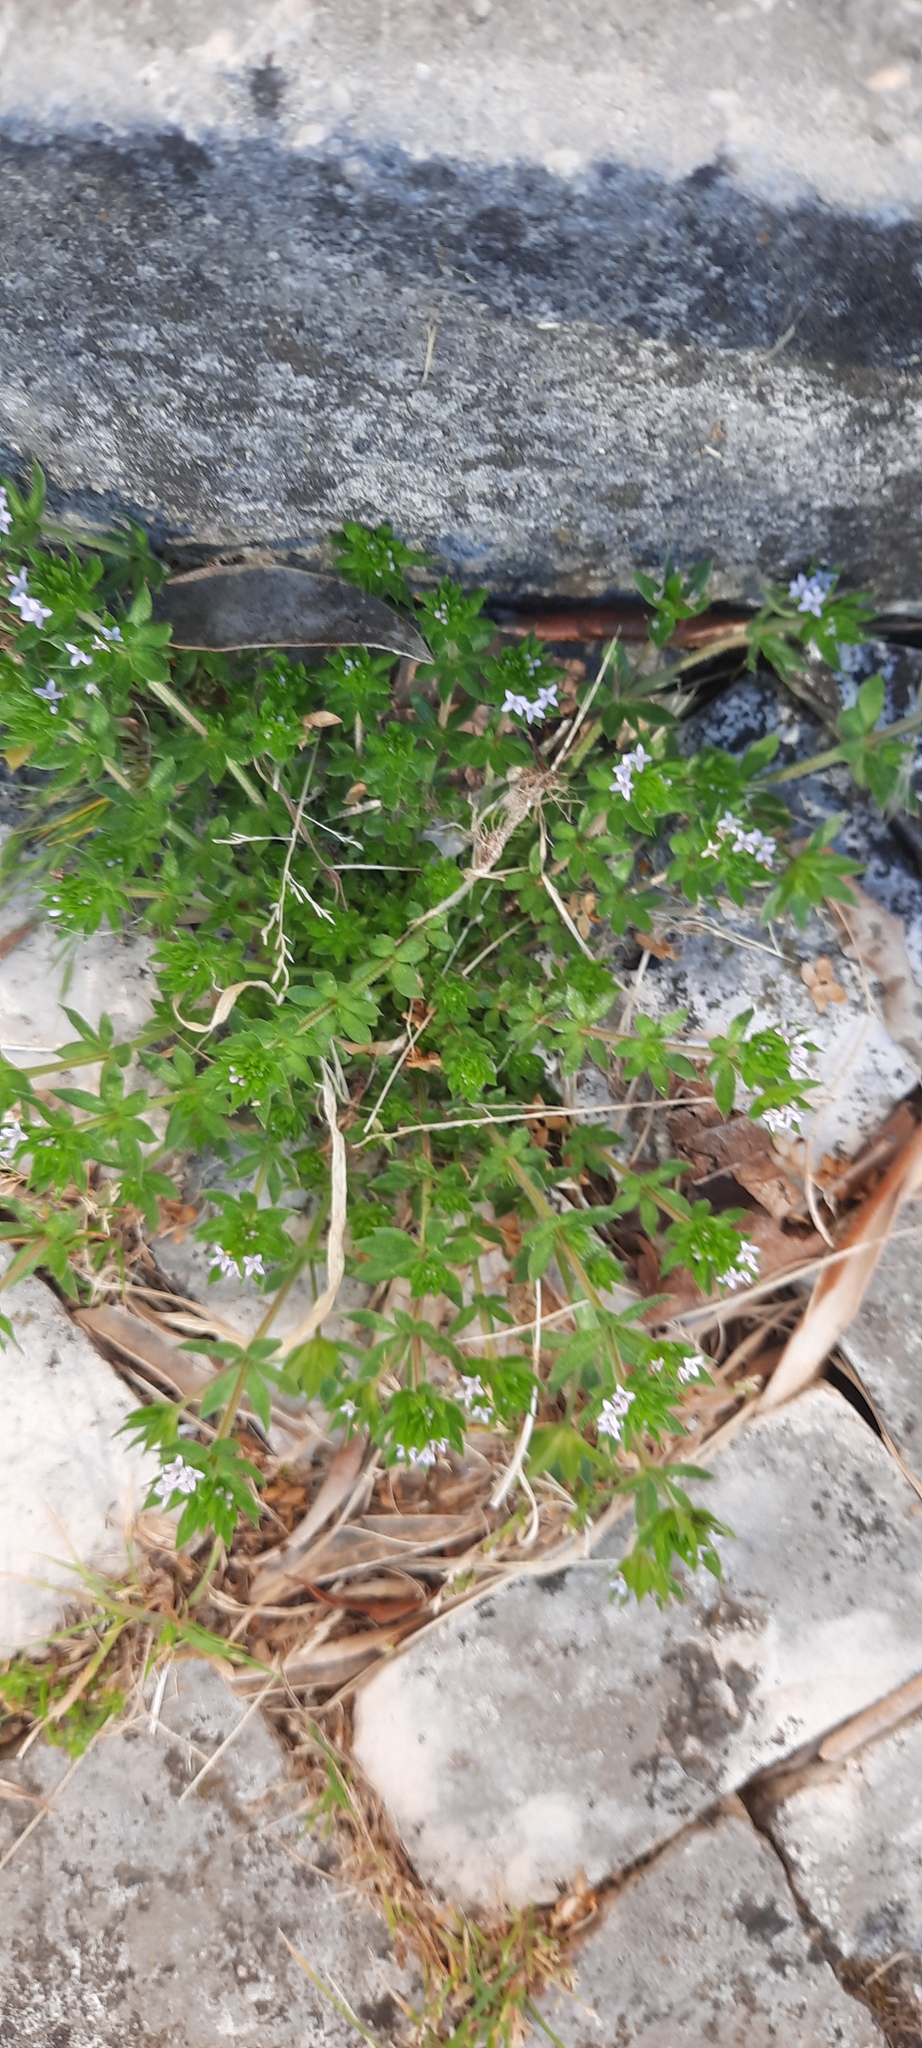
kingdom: Plantae
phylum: Tracheophyta
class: Magnoliopsida
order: Gentianales
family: Rubiaceae
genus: Sherardia
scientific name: Sherardia arvensis
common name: Field madder
